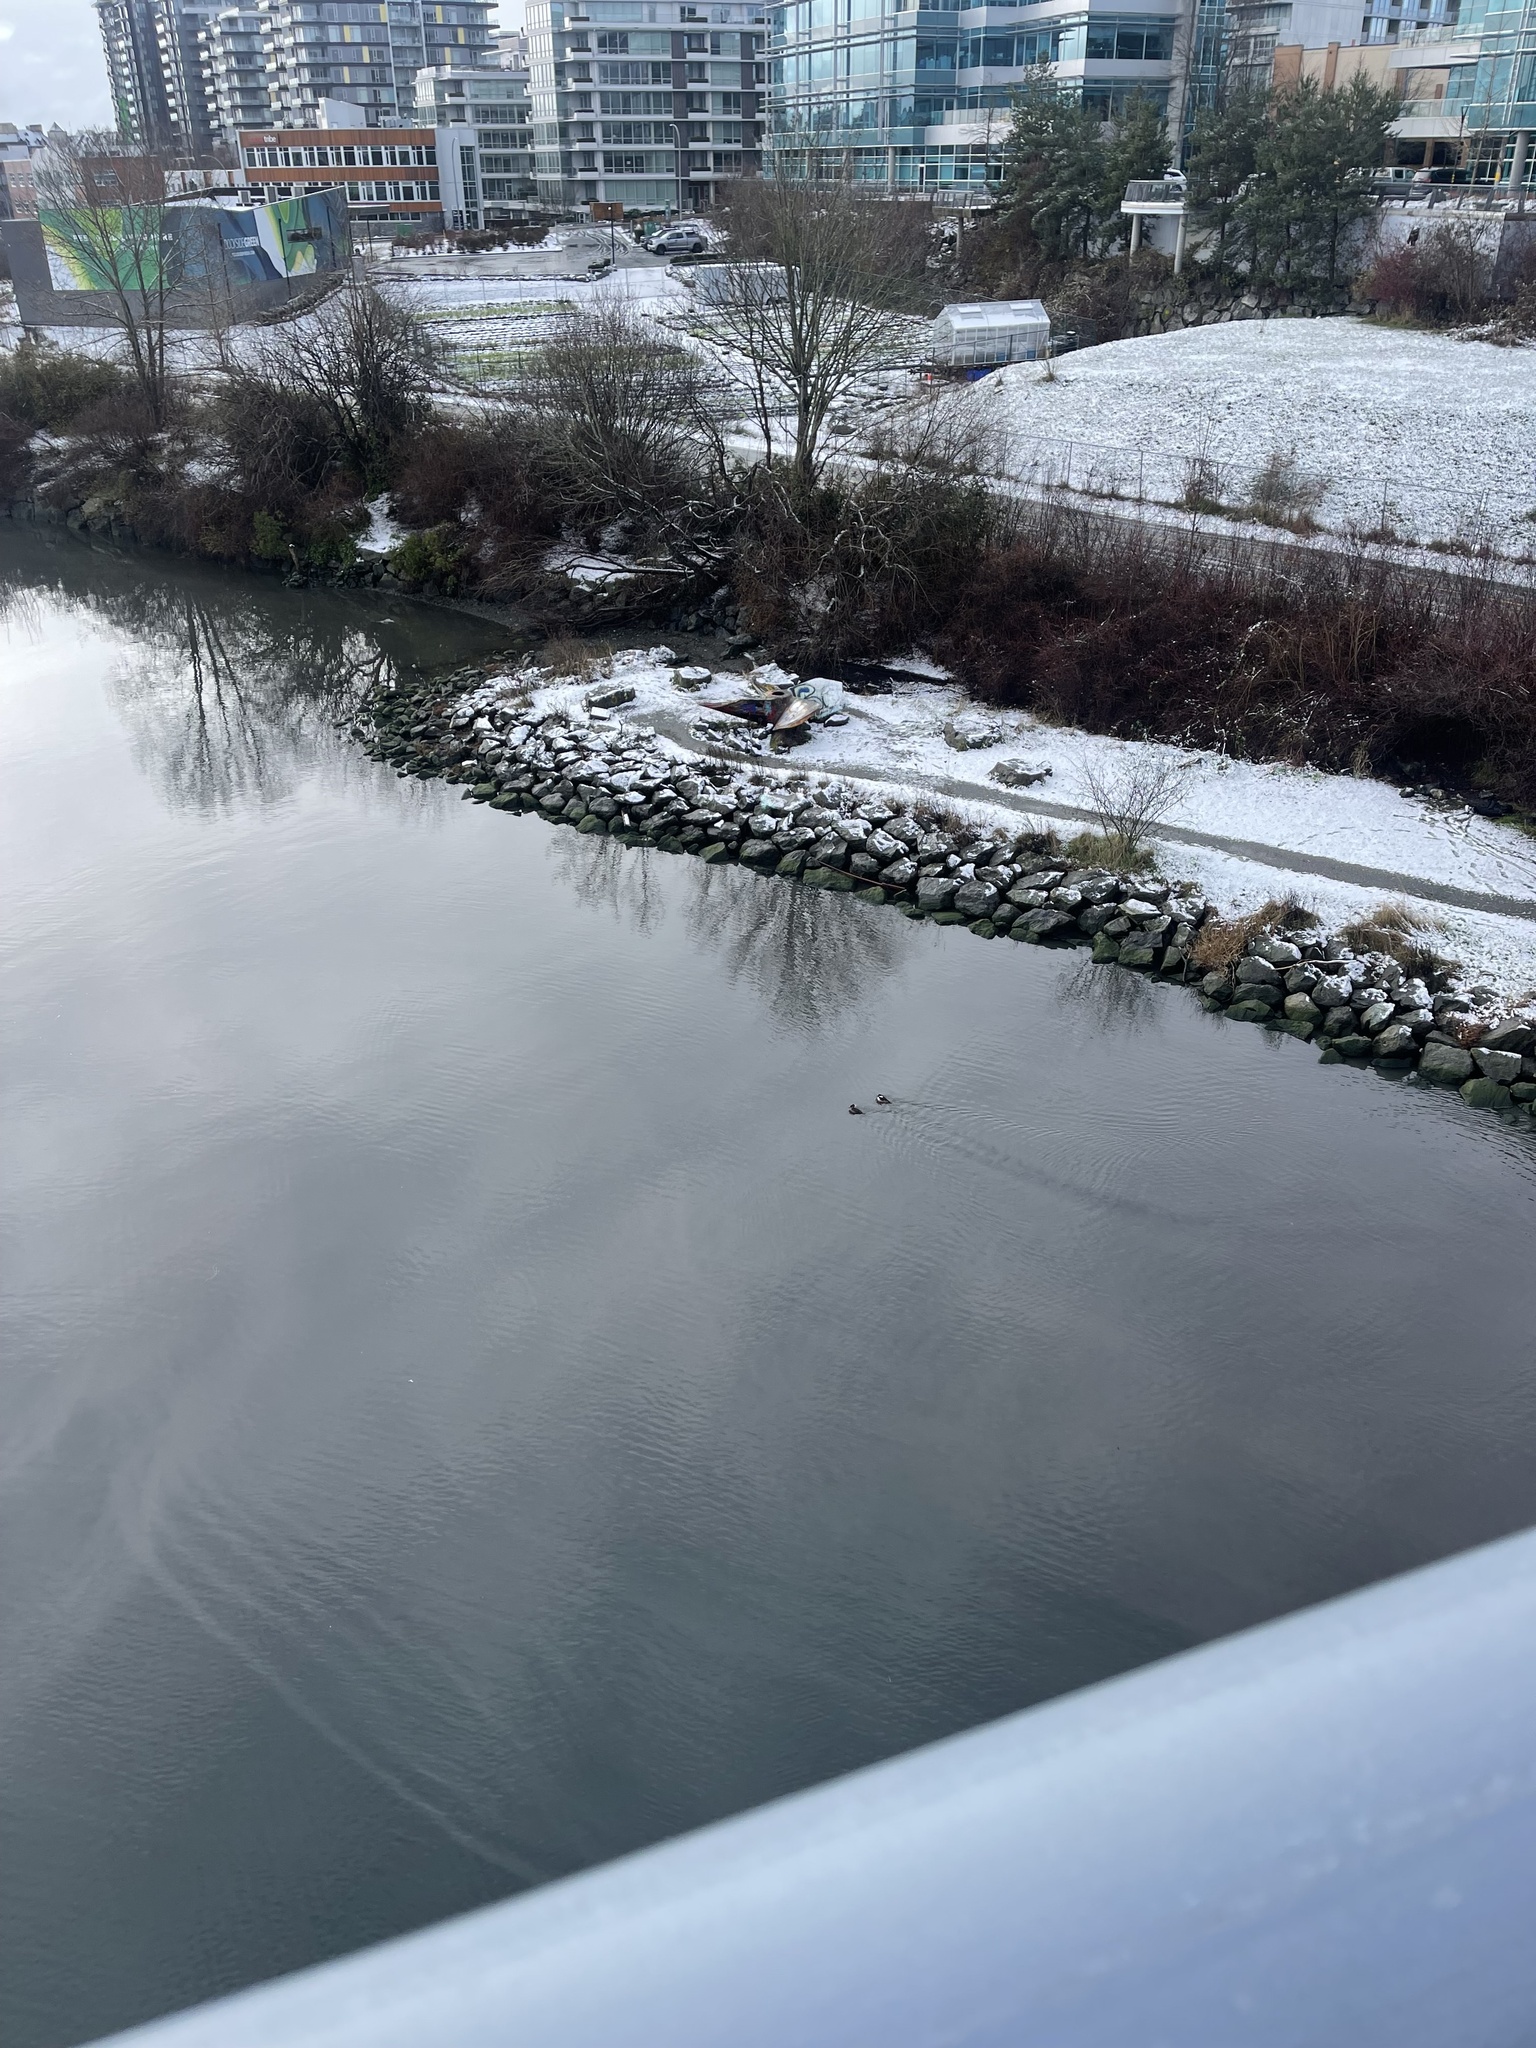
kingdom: Animalia
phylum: Chordata
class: Aves
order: Anseriformes
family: Anatidae
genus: Lophodytes
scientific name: Lophodytes cucullatus
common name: Hooded merganser
